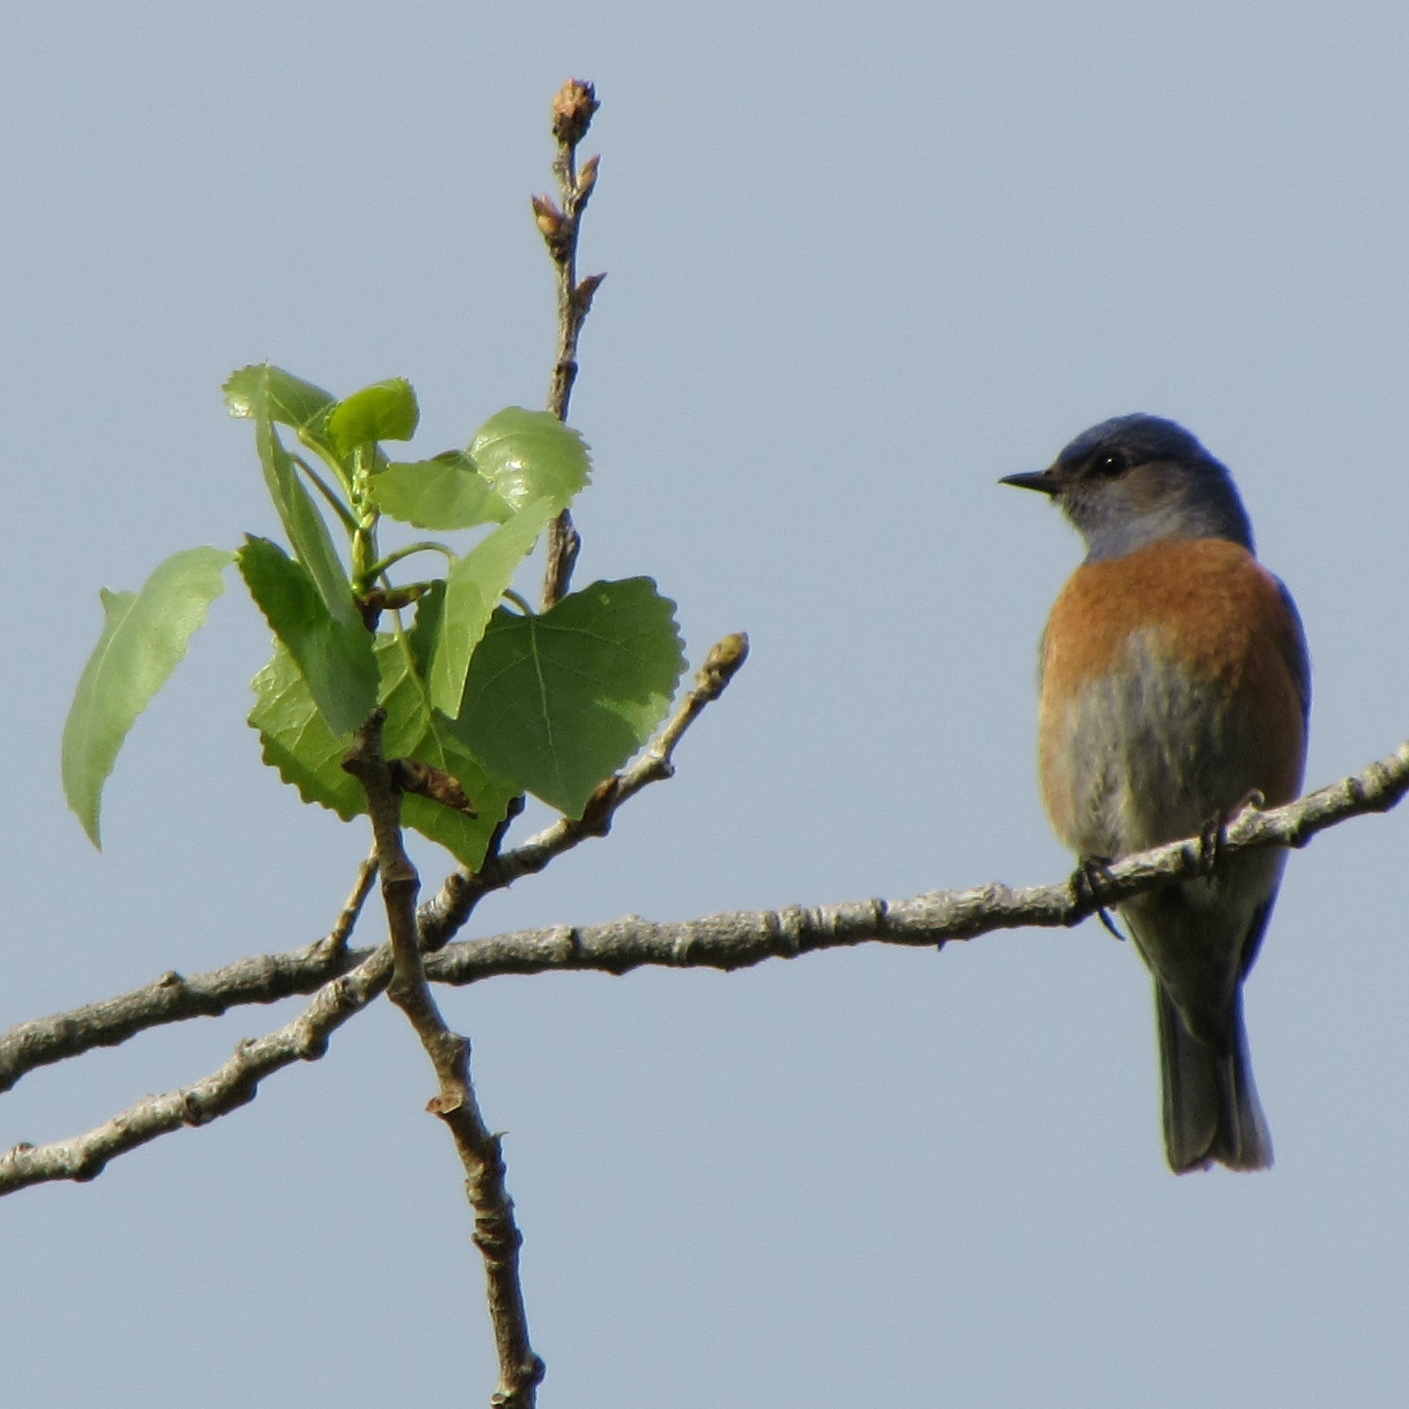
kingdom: Animalia
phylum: Chordata
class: Aves
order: Passeriformes
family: Turdidae
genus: Sialia
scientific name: Sialia mexicana
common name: Western bluebird
